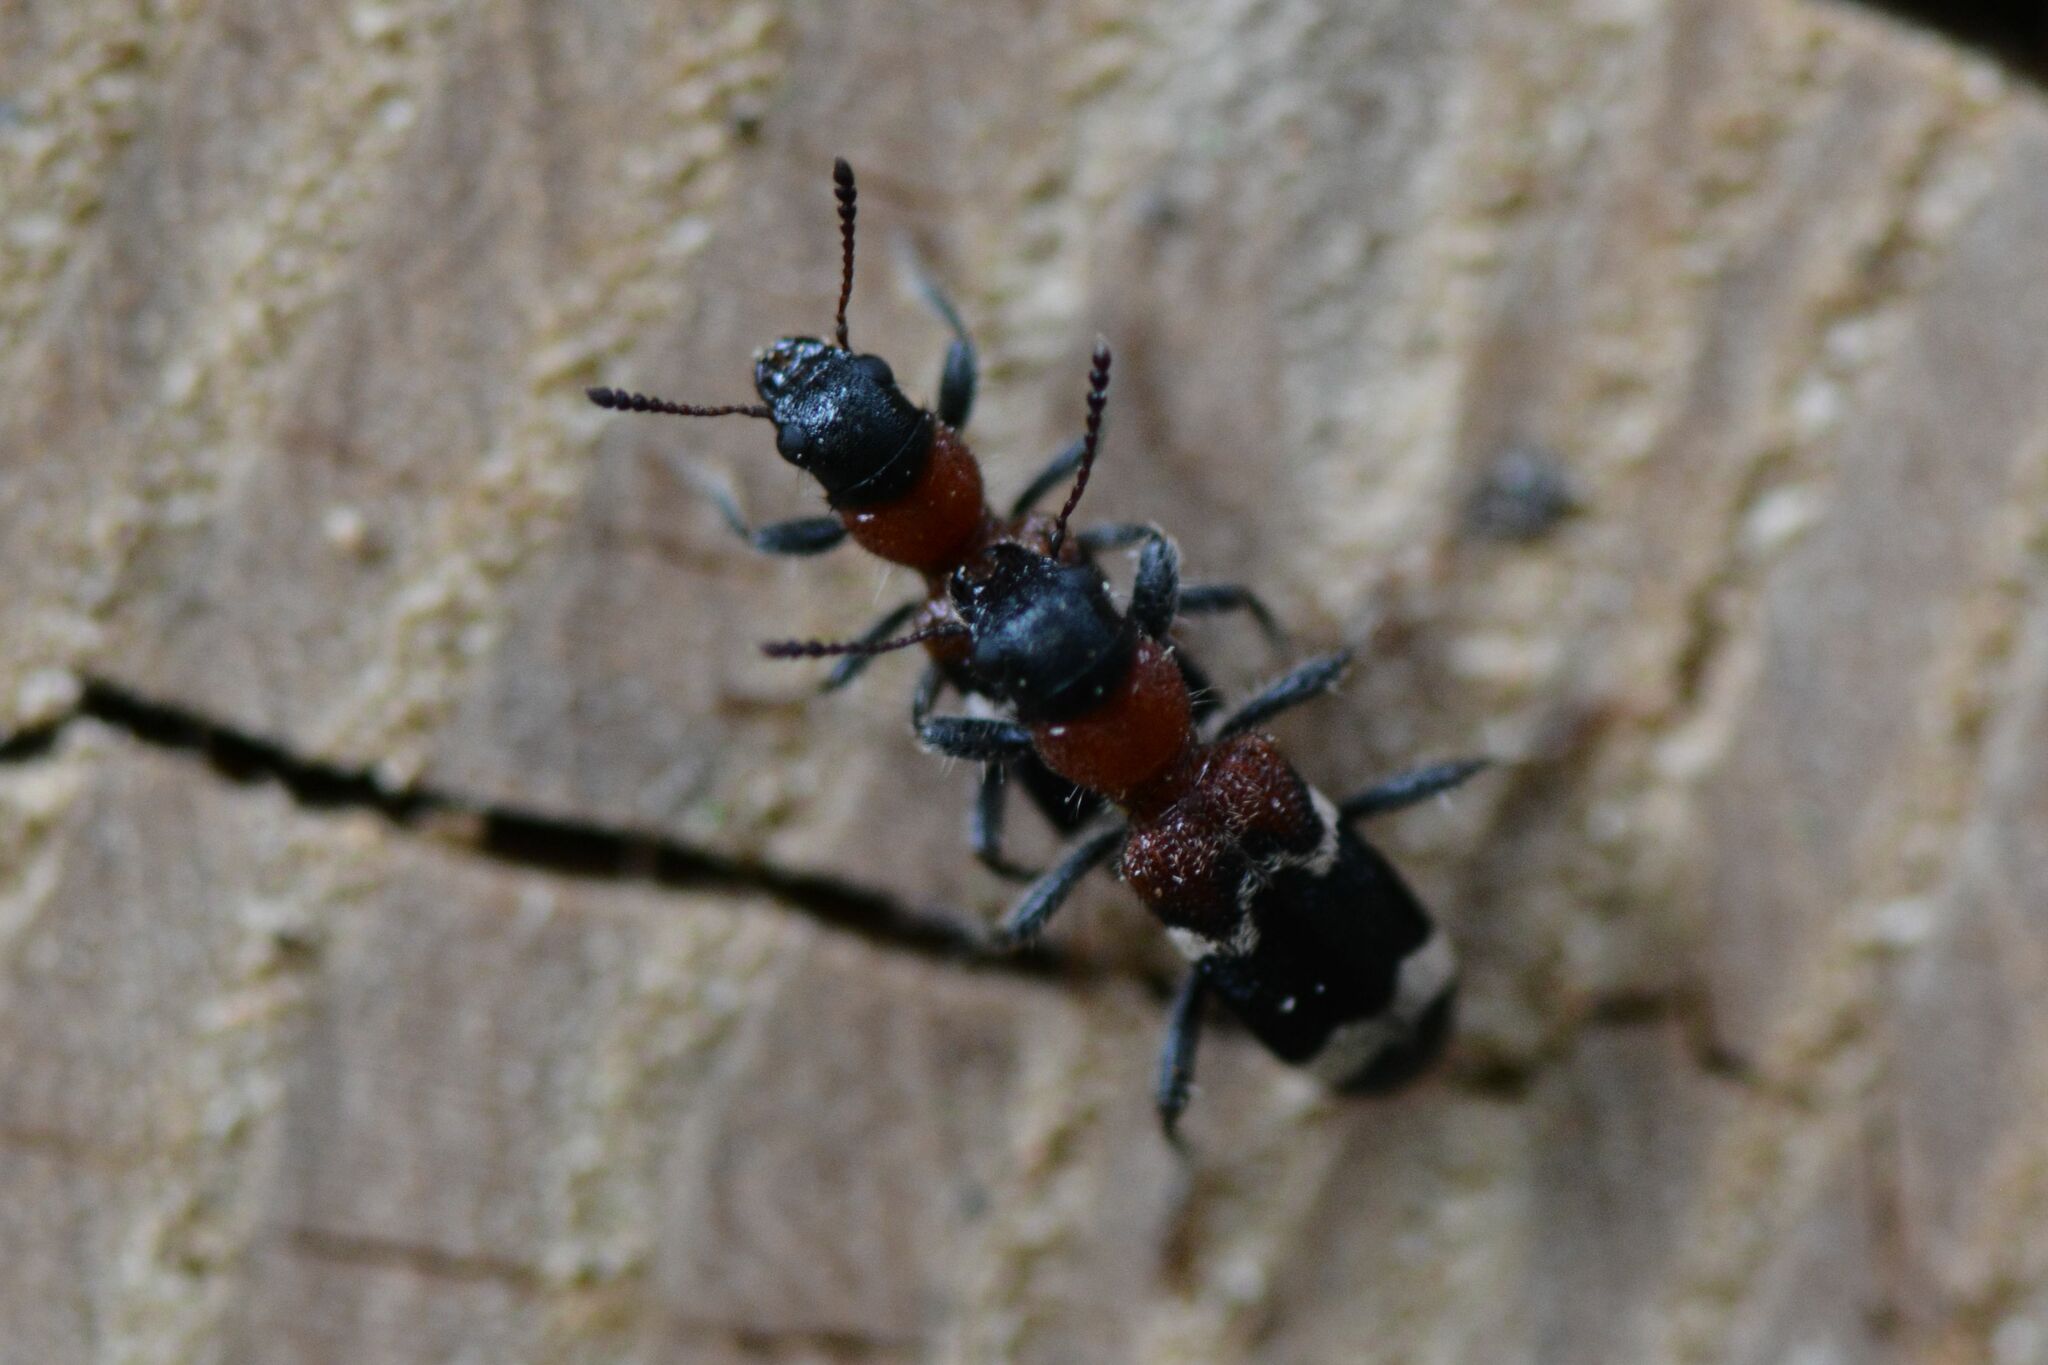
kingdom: Animalia
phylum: Arthropoda
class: Insecta
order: Coleoptera
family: Cleridae
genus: Thanasimus
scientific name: Thanasimus formicarius
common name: Ant beetle
